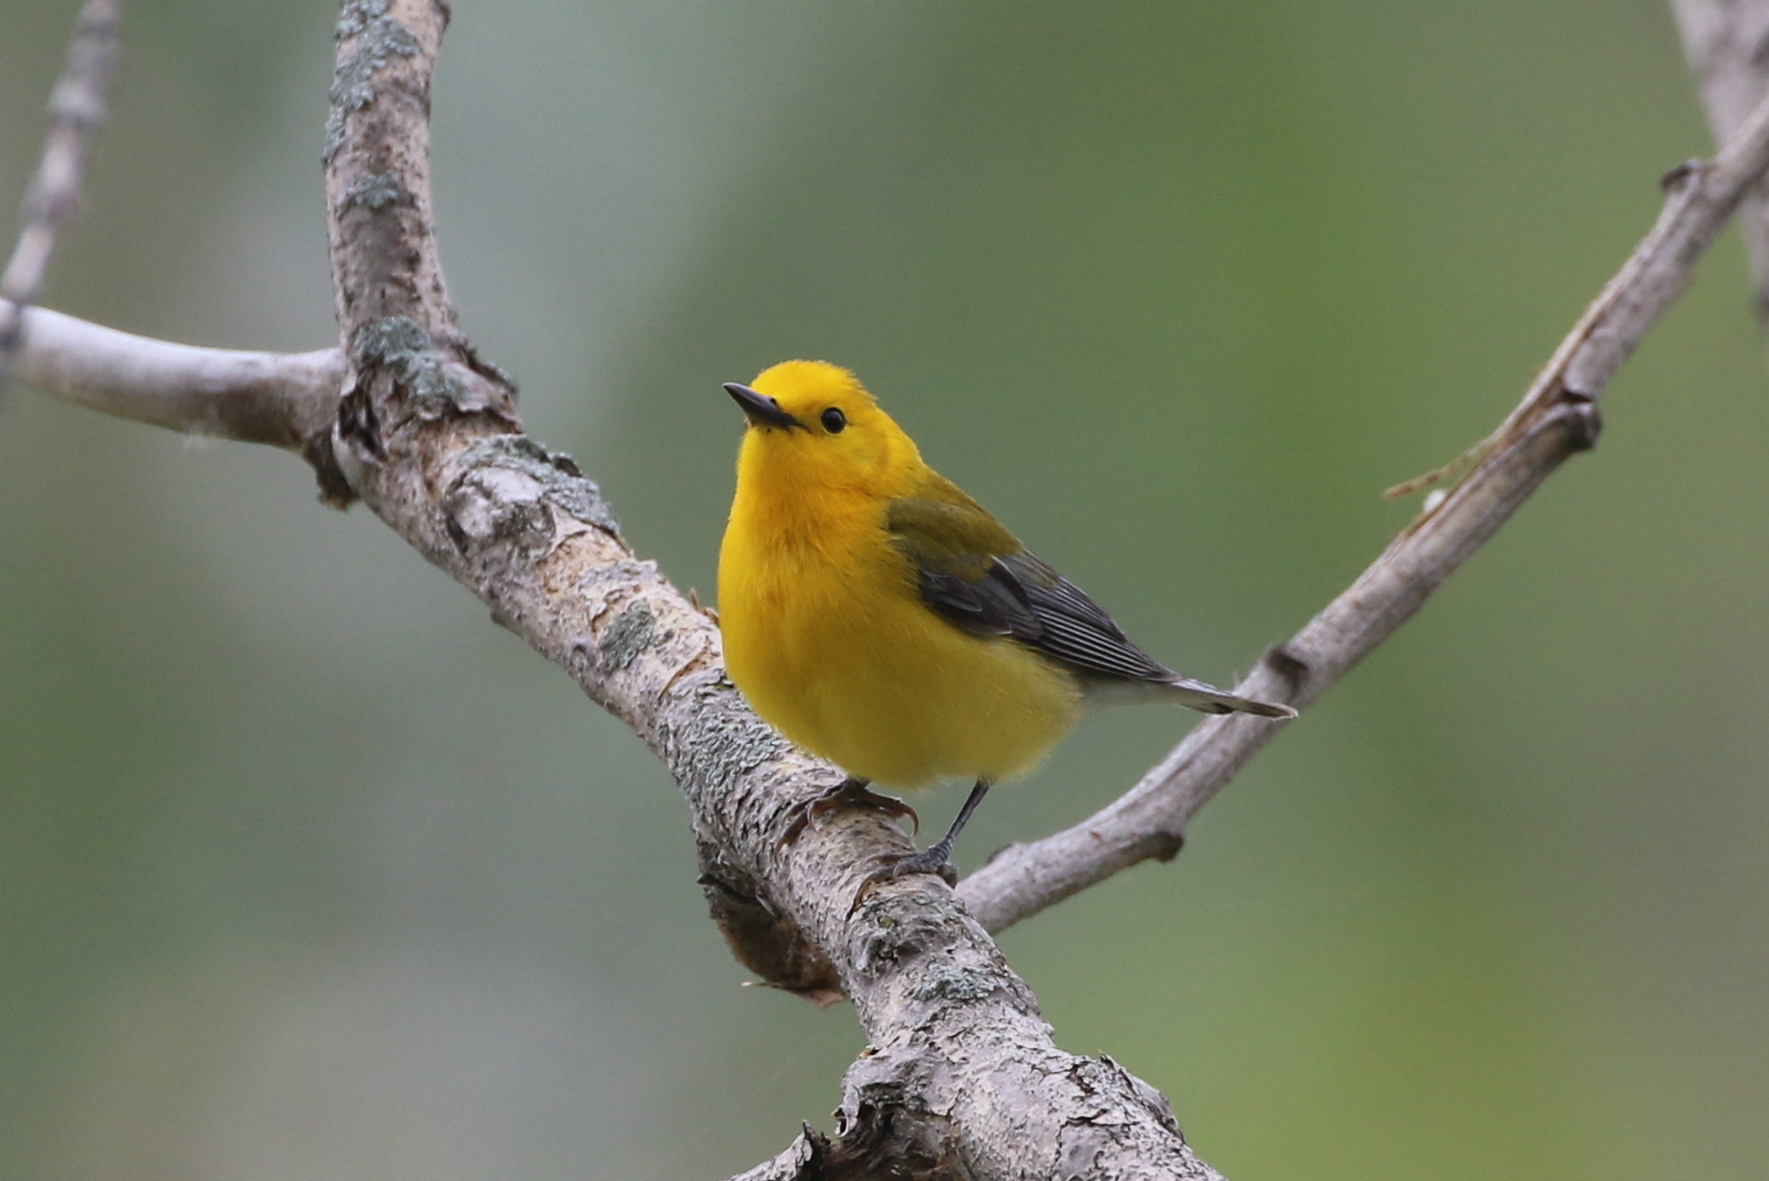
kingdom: Animalia
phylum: Chordata
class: Aves
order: Passeriformes
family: Parulidae
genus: Protonotaria
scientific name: Protonotaria citrea
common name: Prothonotary warbler
